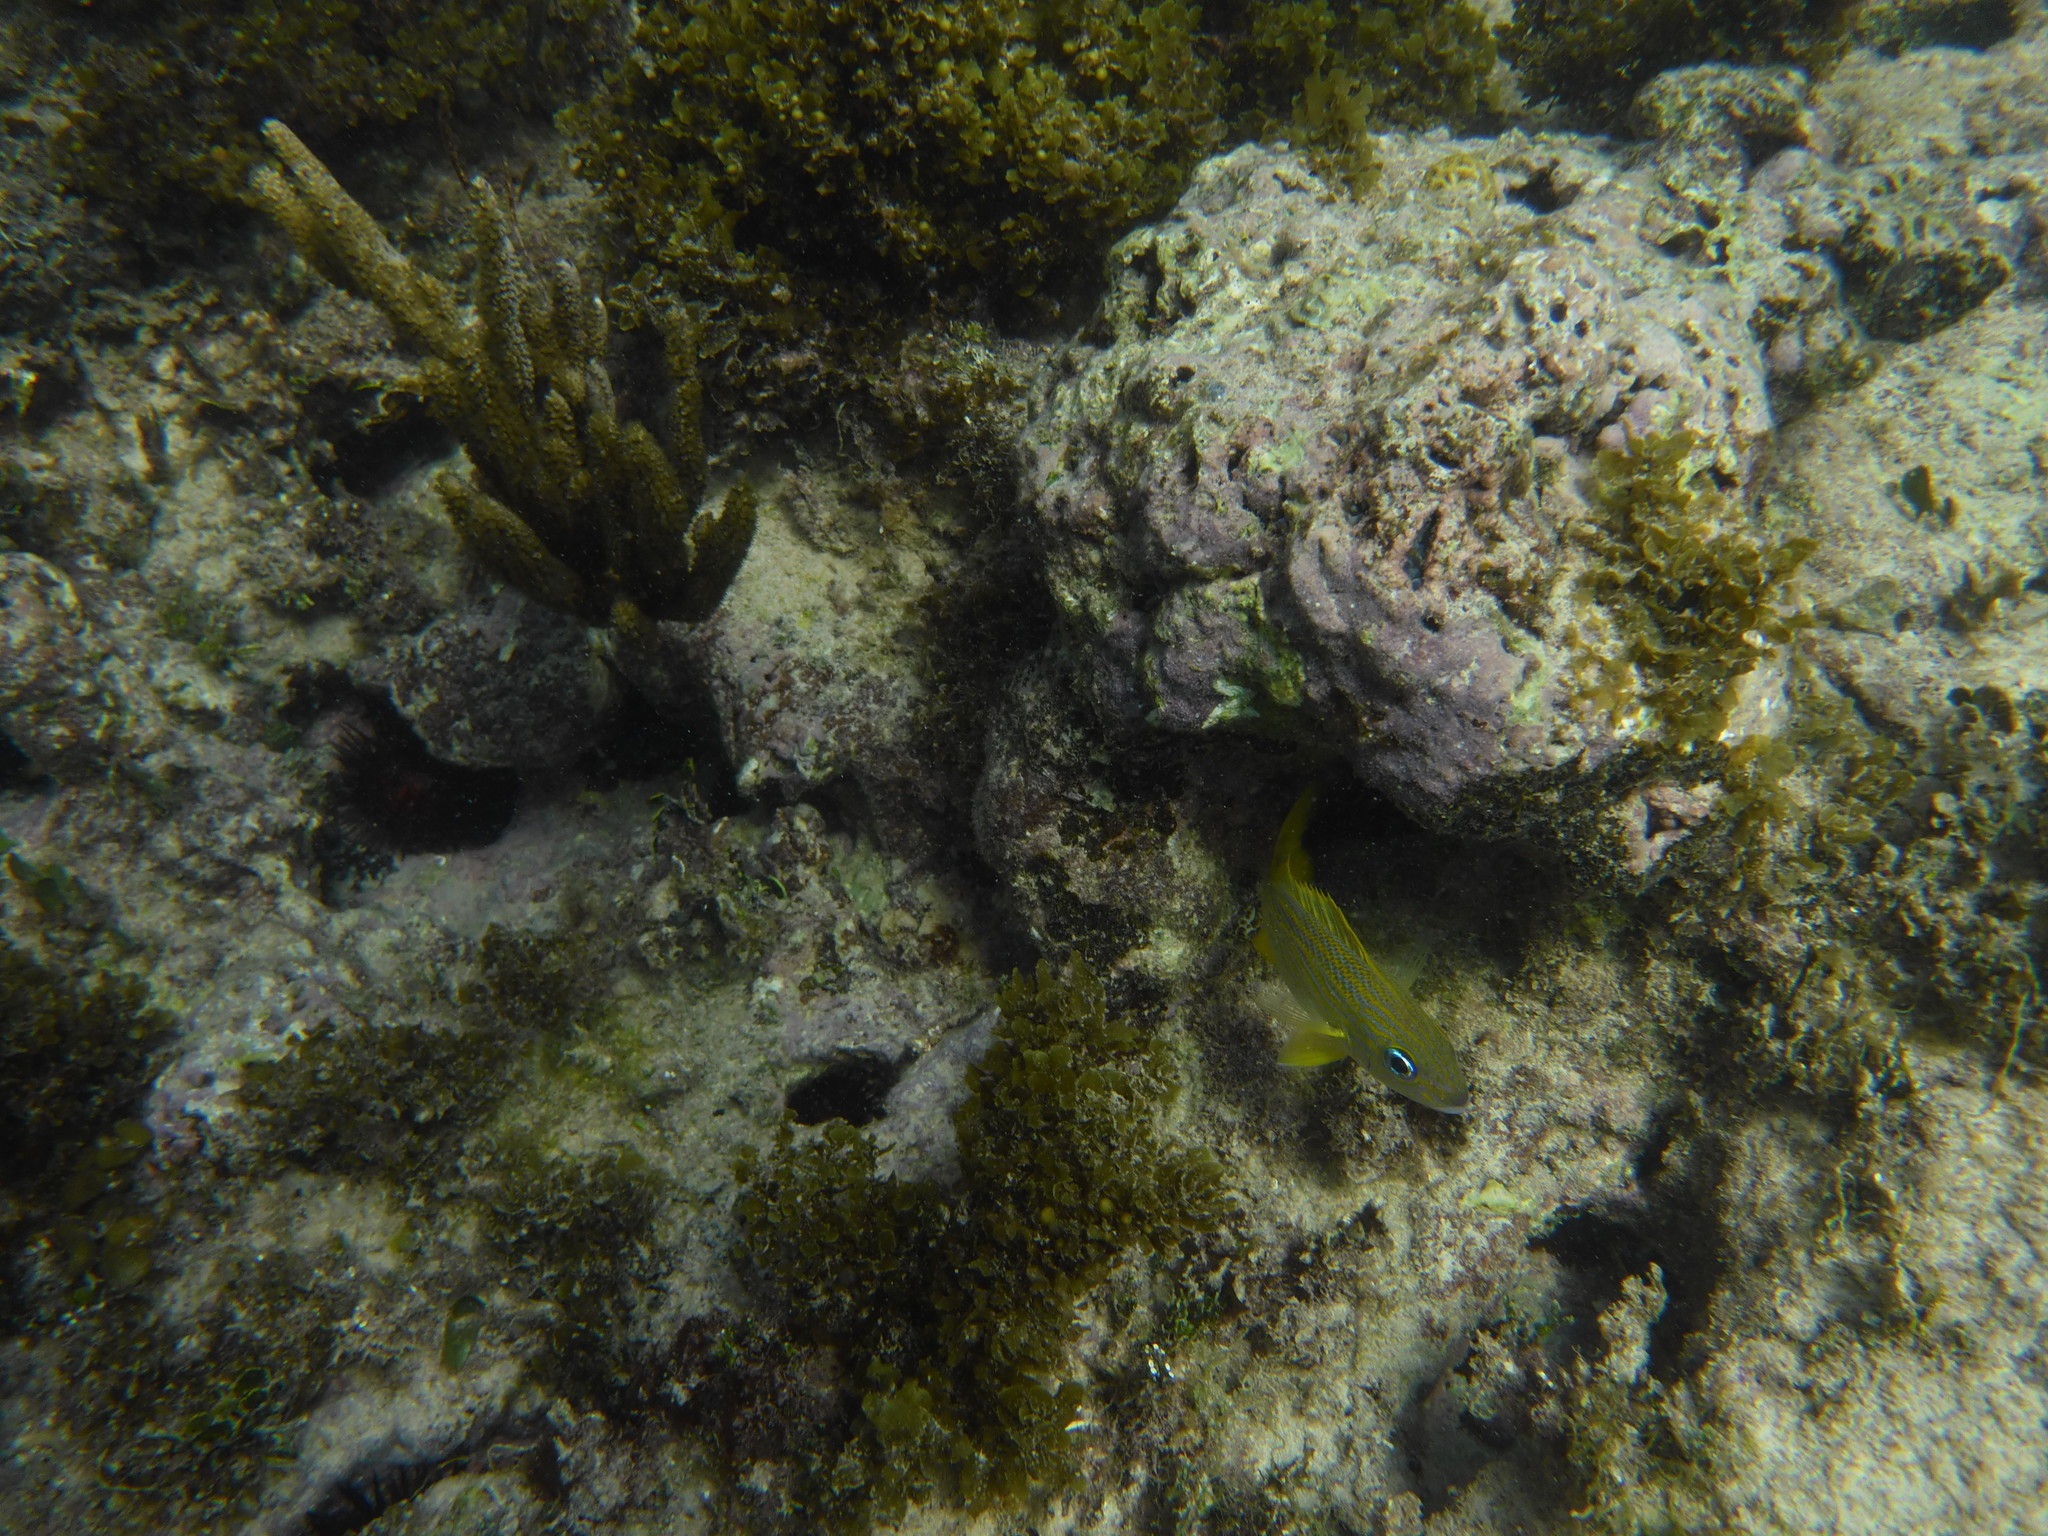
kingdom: Animalia
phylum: Chordata
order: Perciformes
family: Haemulidae
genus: Haemulon
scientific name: Haemulon flavolineatum
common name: French grunt
